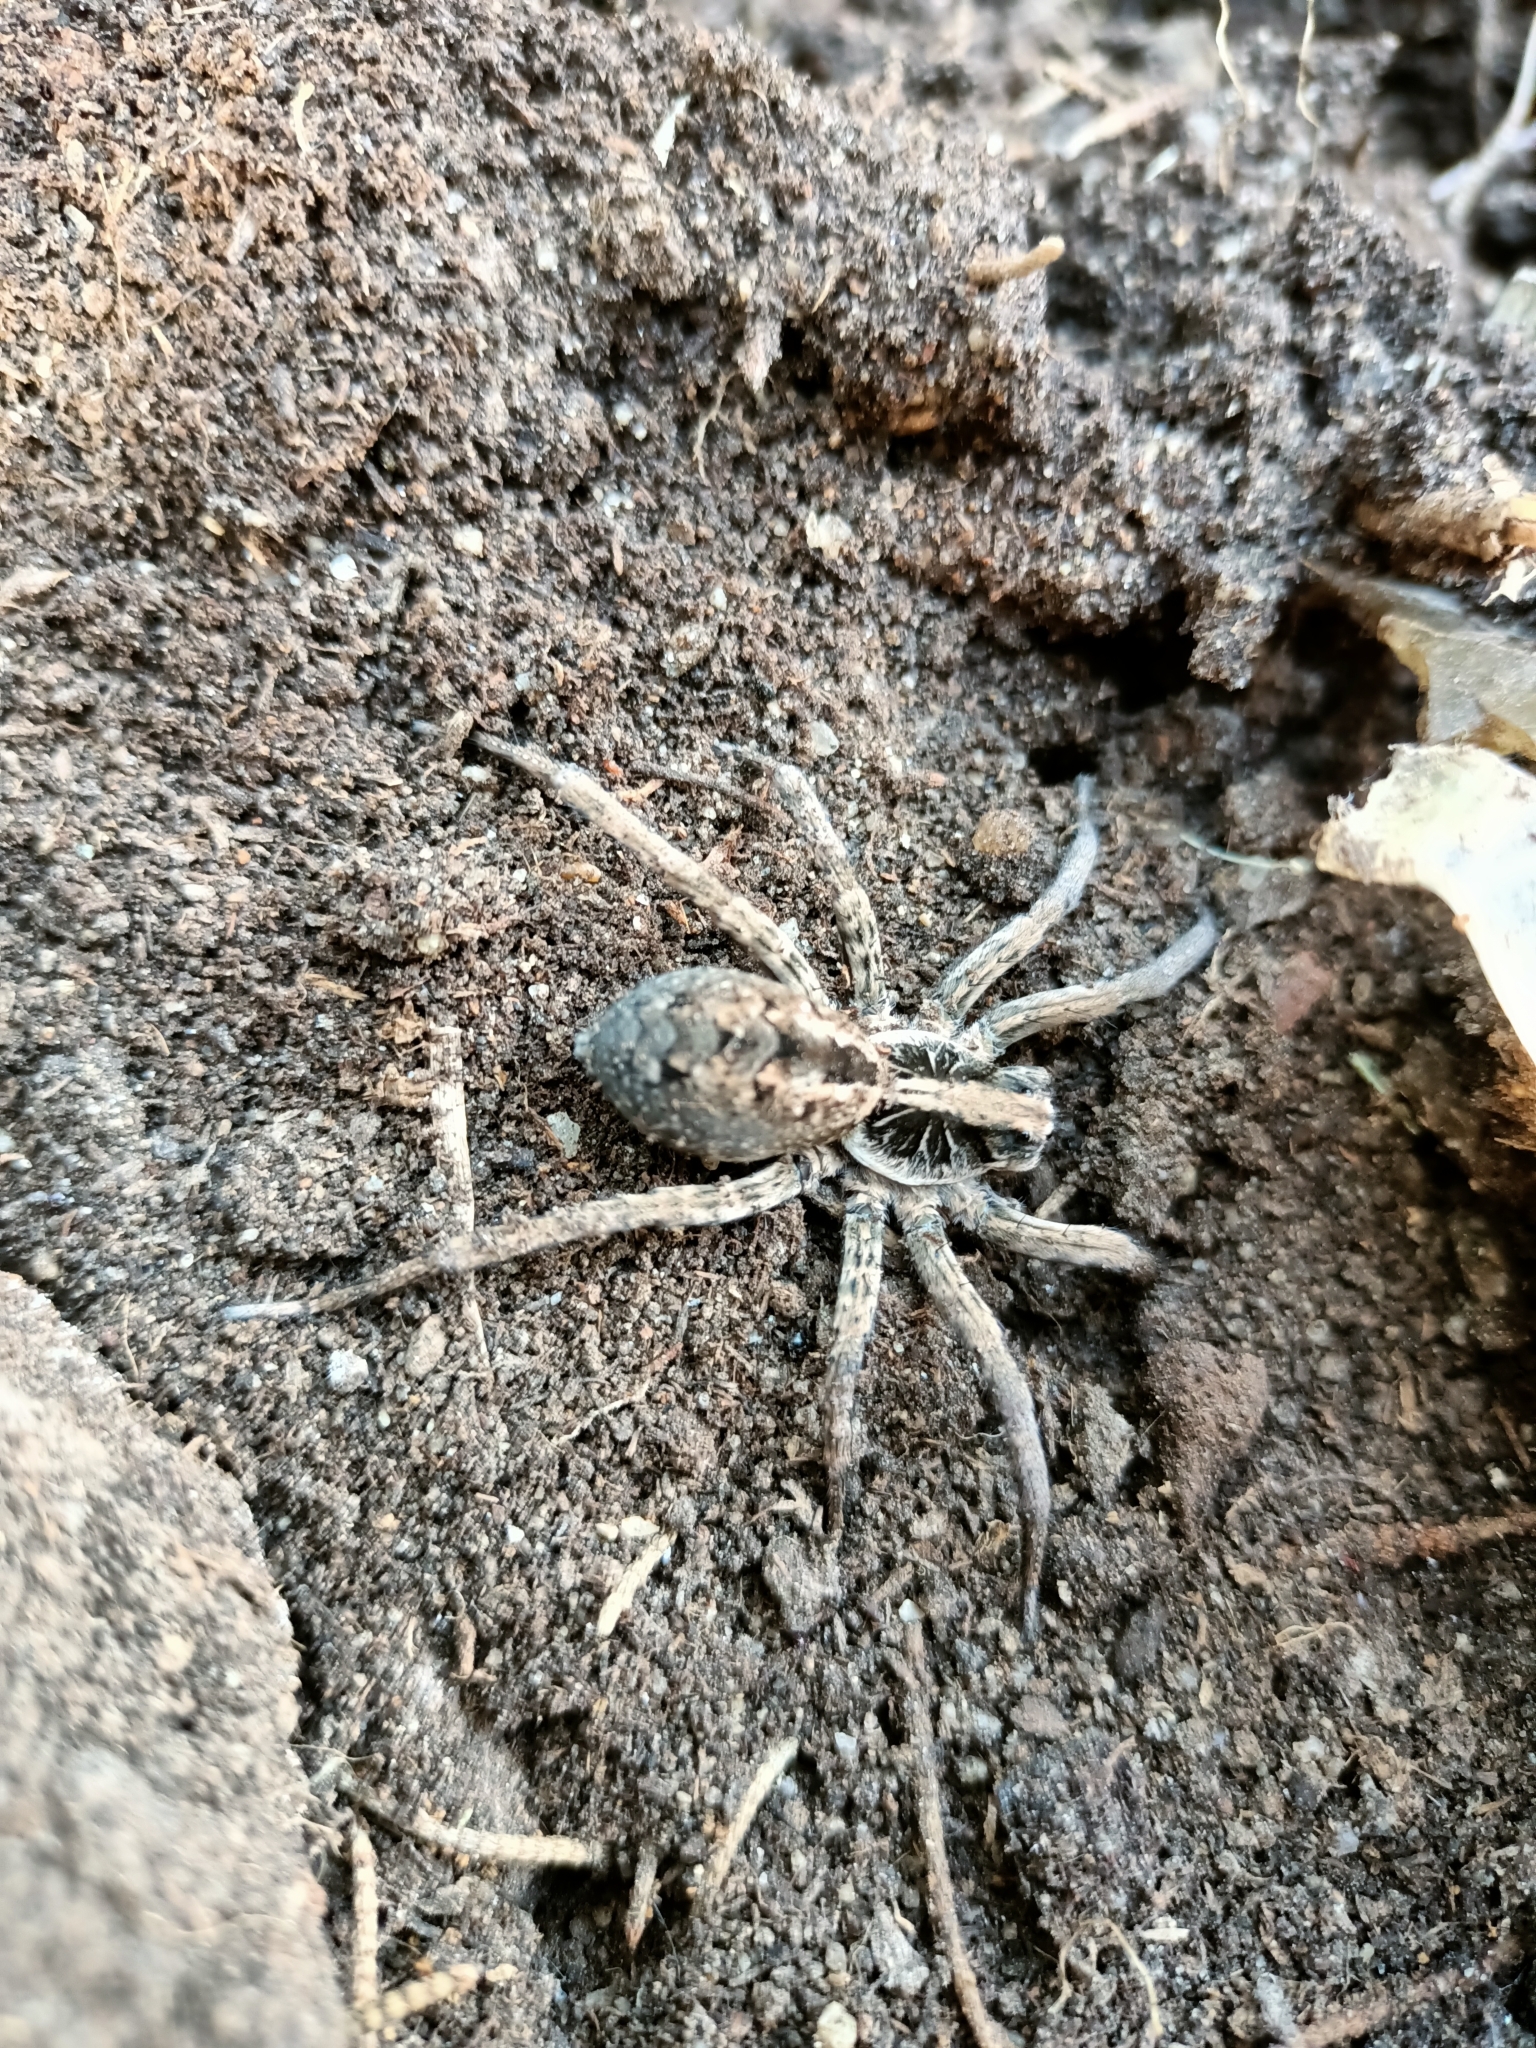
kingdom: Animalia
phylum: Arthropoda
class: Arachnida
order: Araneae
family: Lycosidae
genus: Schizocosa
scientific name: Schizocosa malitiosa
